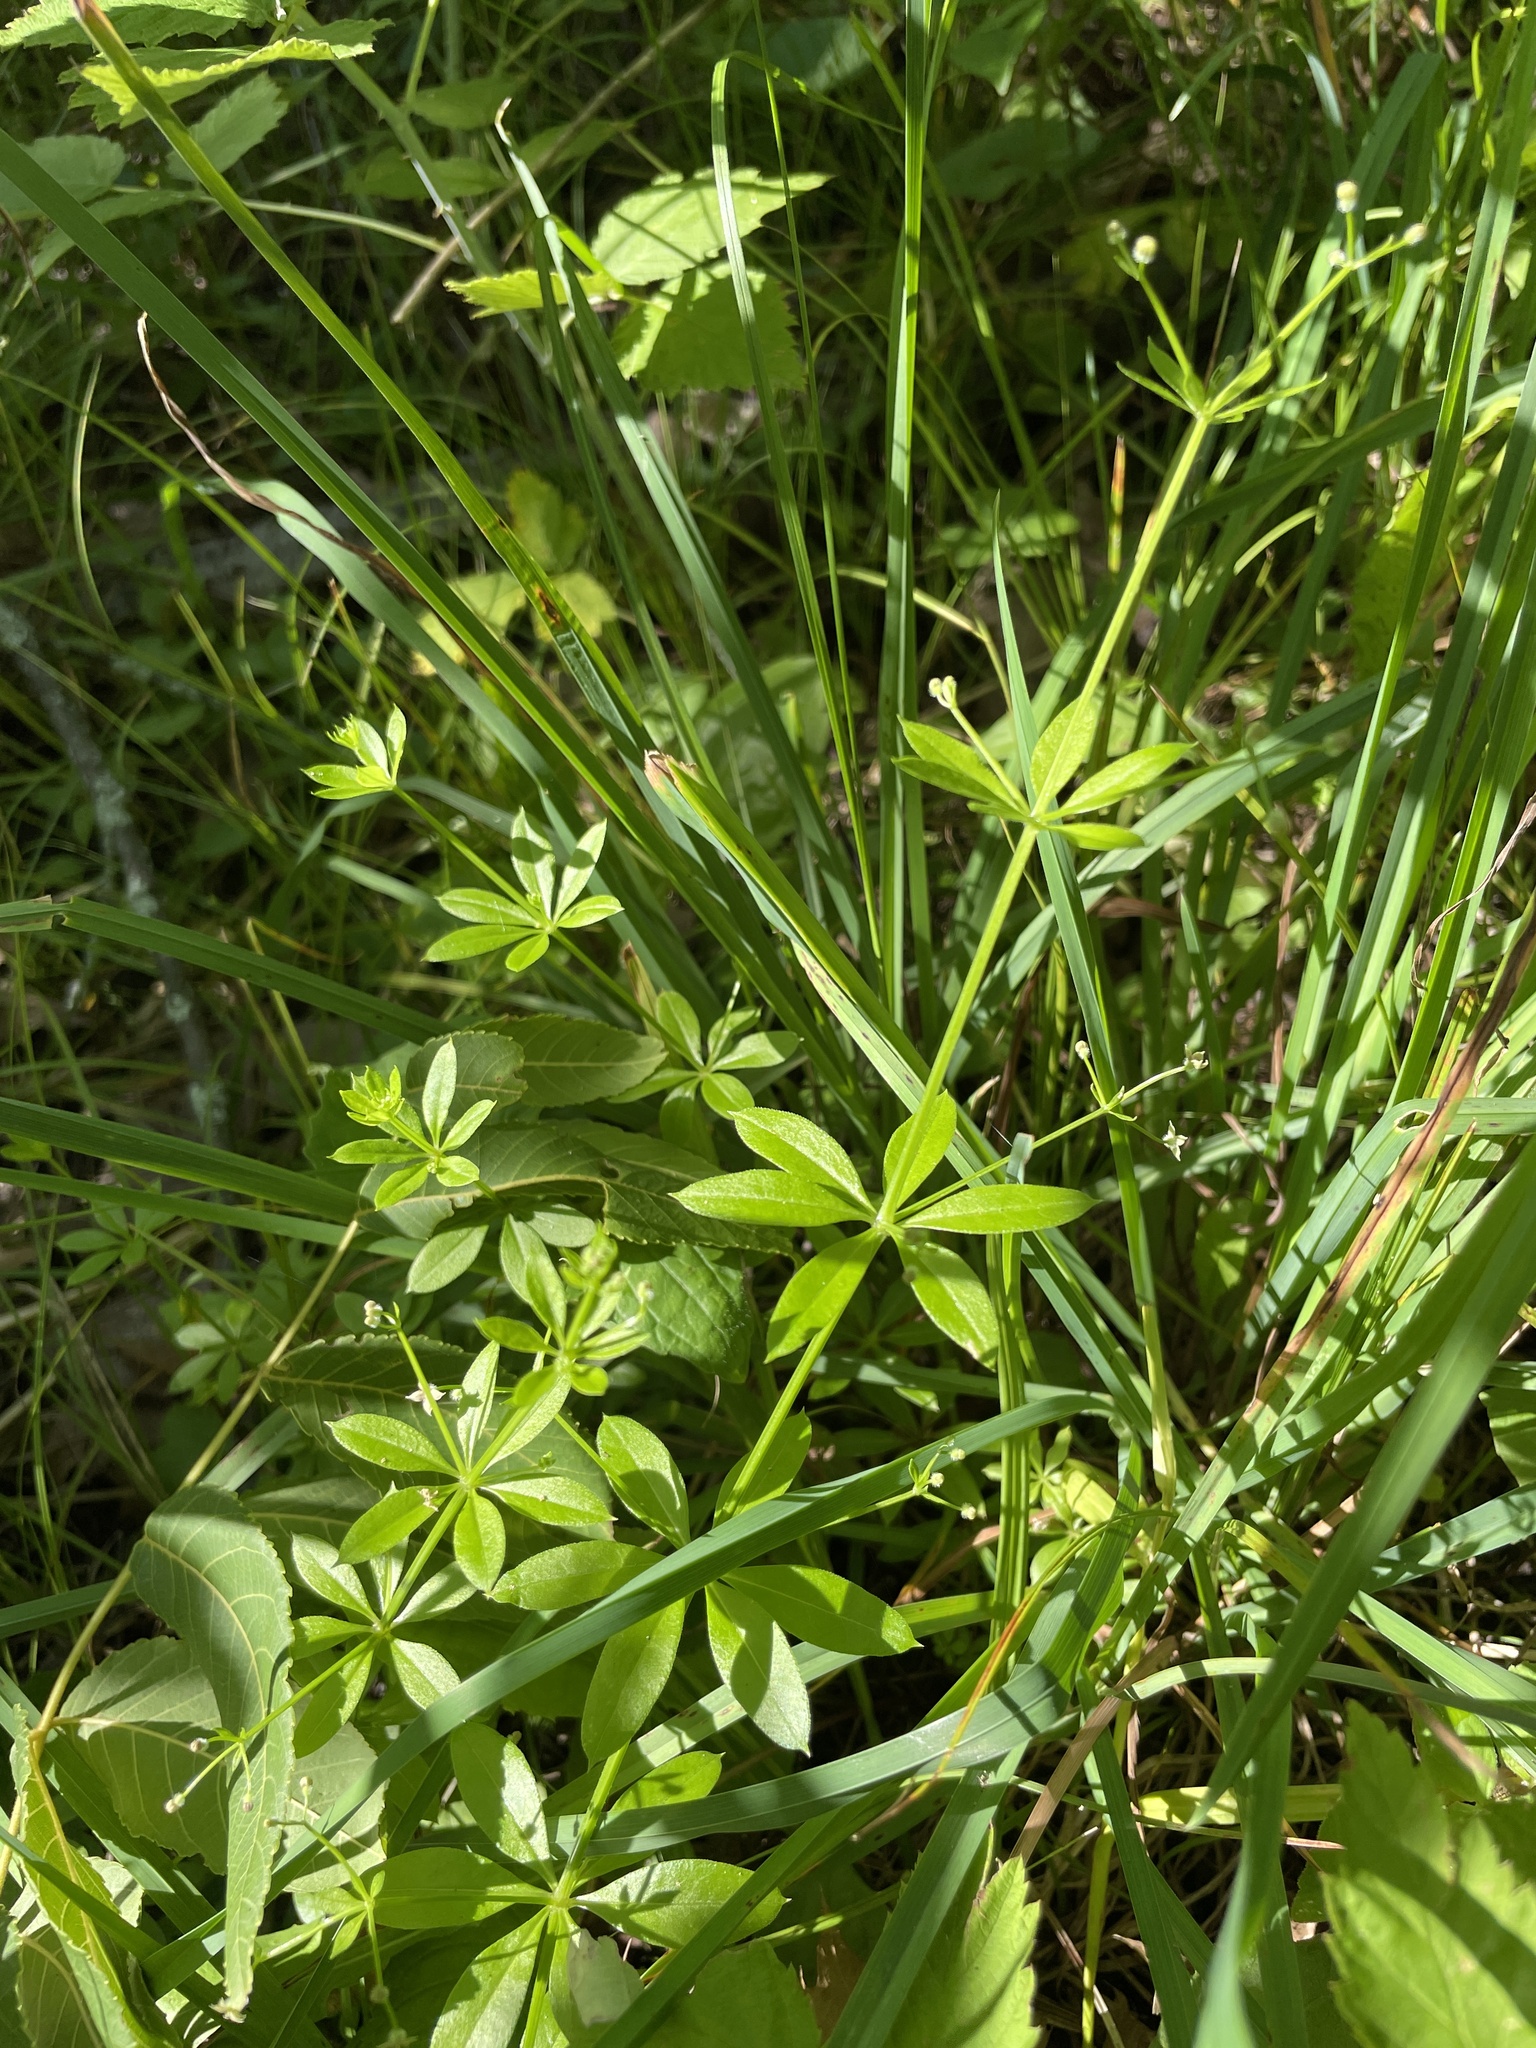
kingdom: Plantae
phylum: Tracheophyta
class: Magnoliopsida
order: Gentianales
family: Rubiaceae
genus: Galium
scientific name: Galium triflorum
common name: Fragrant bedstraw
